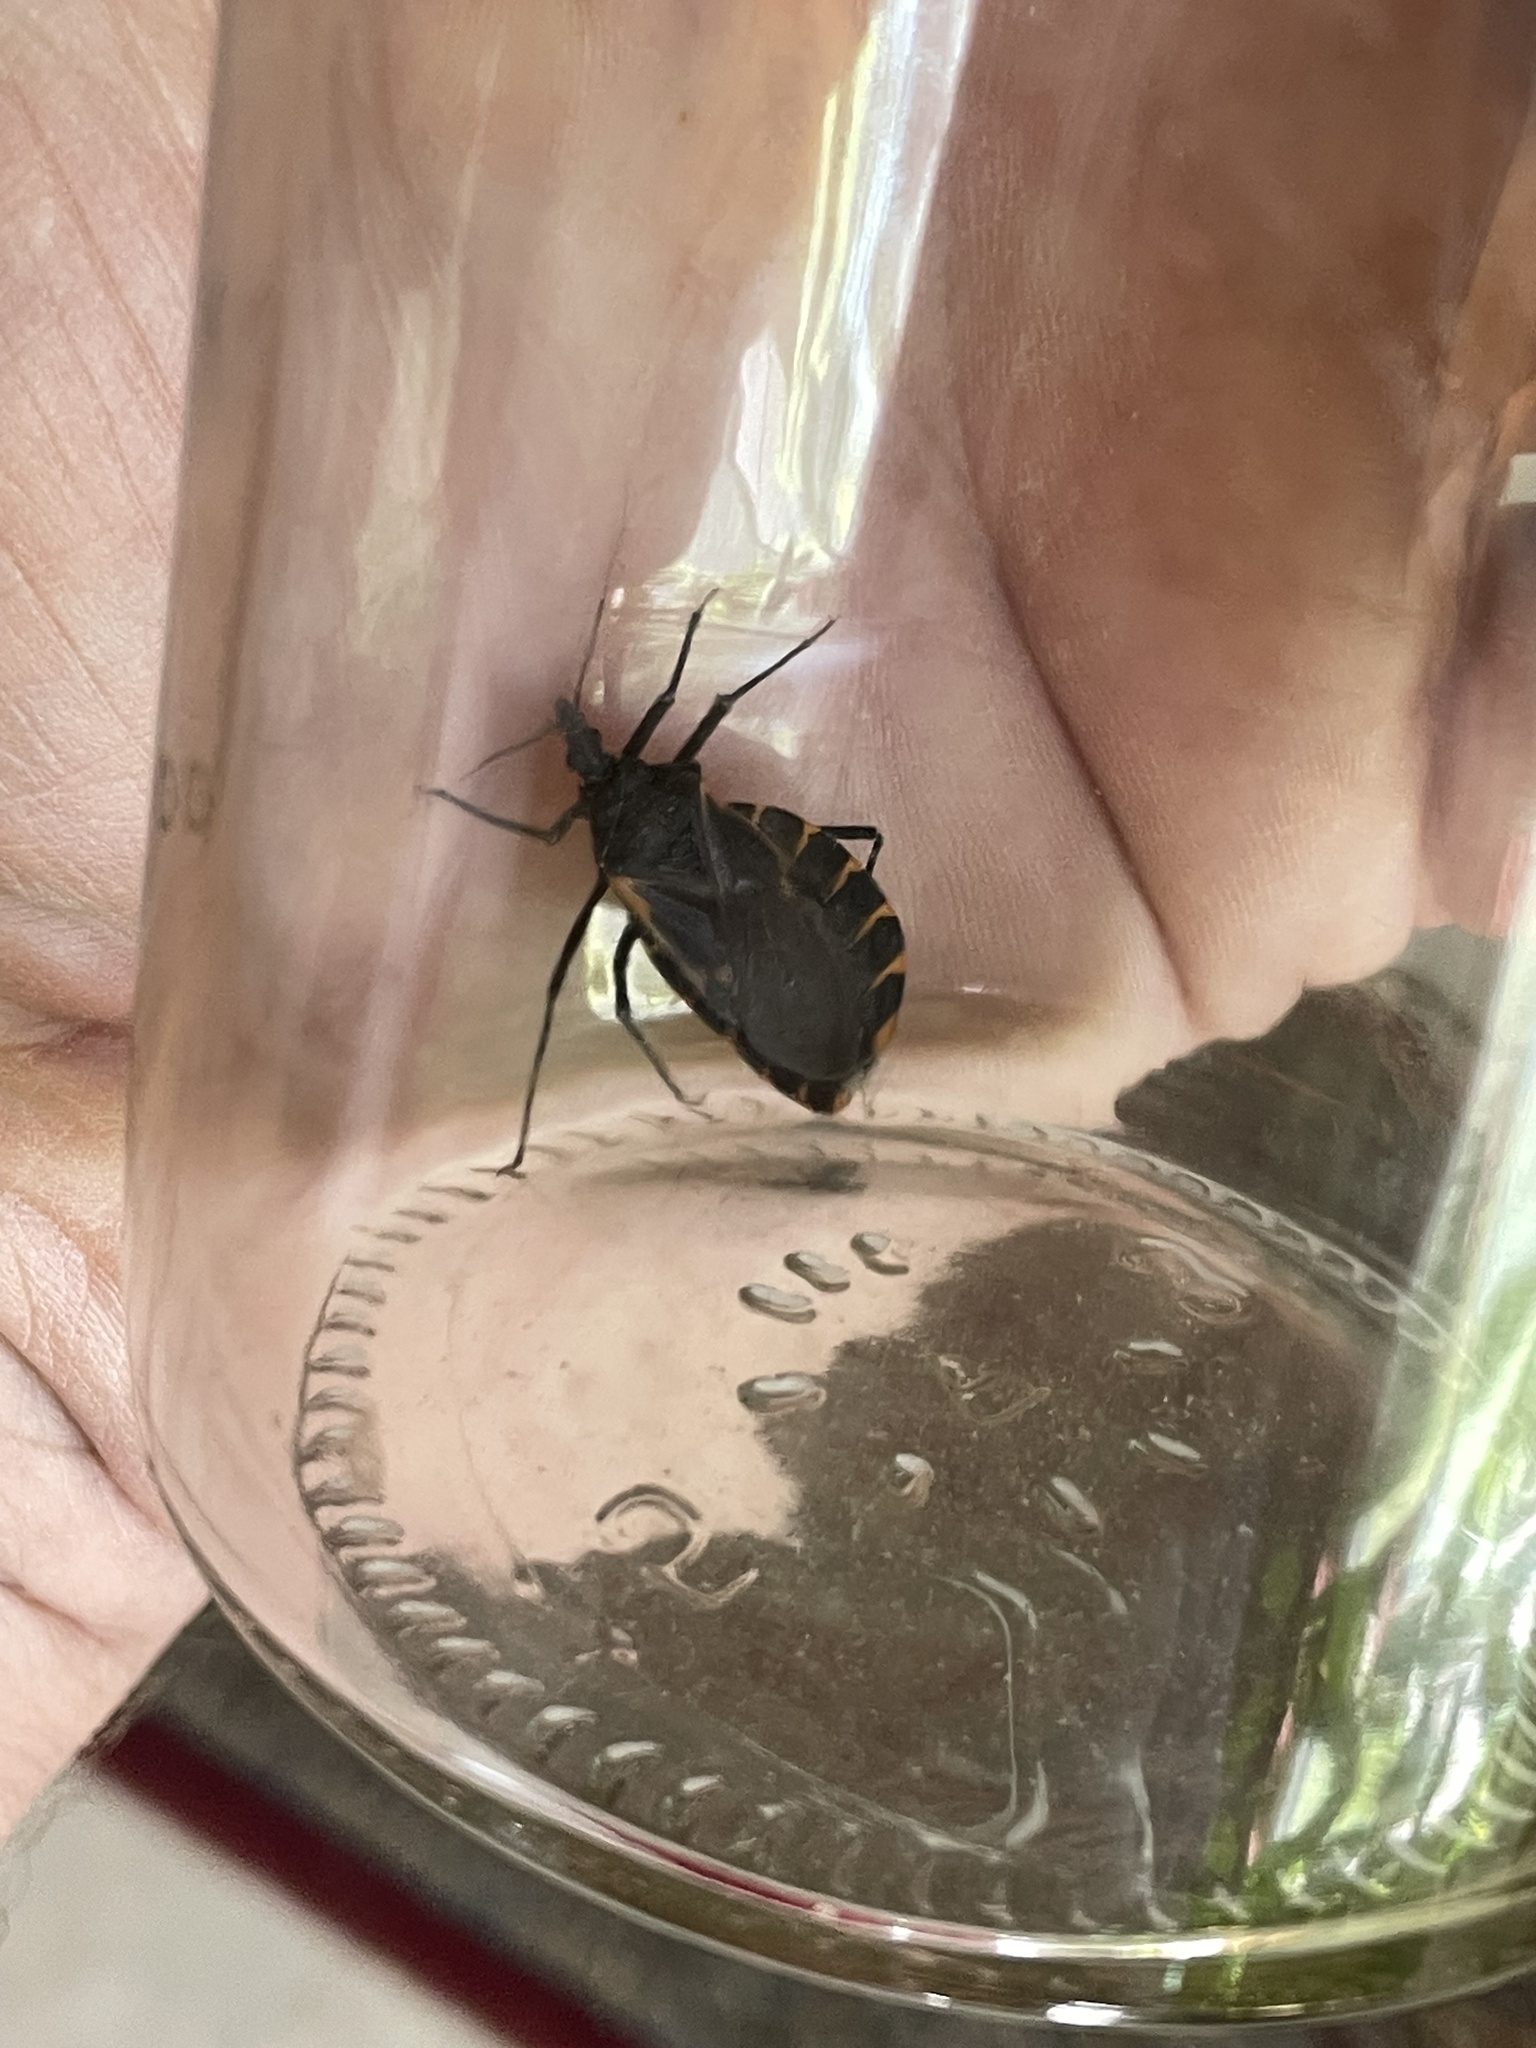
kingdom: Animalia
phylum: Arthropoda
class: Insecta
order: Hemiptera
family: Reduviidae
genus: Triatoma
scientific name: Triatoma gerstaeckeri
